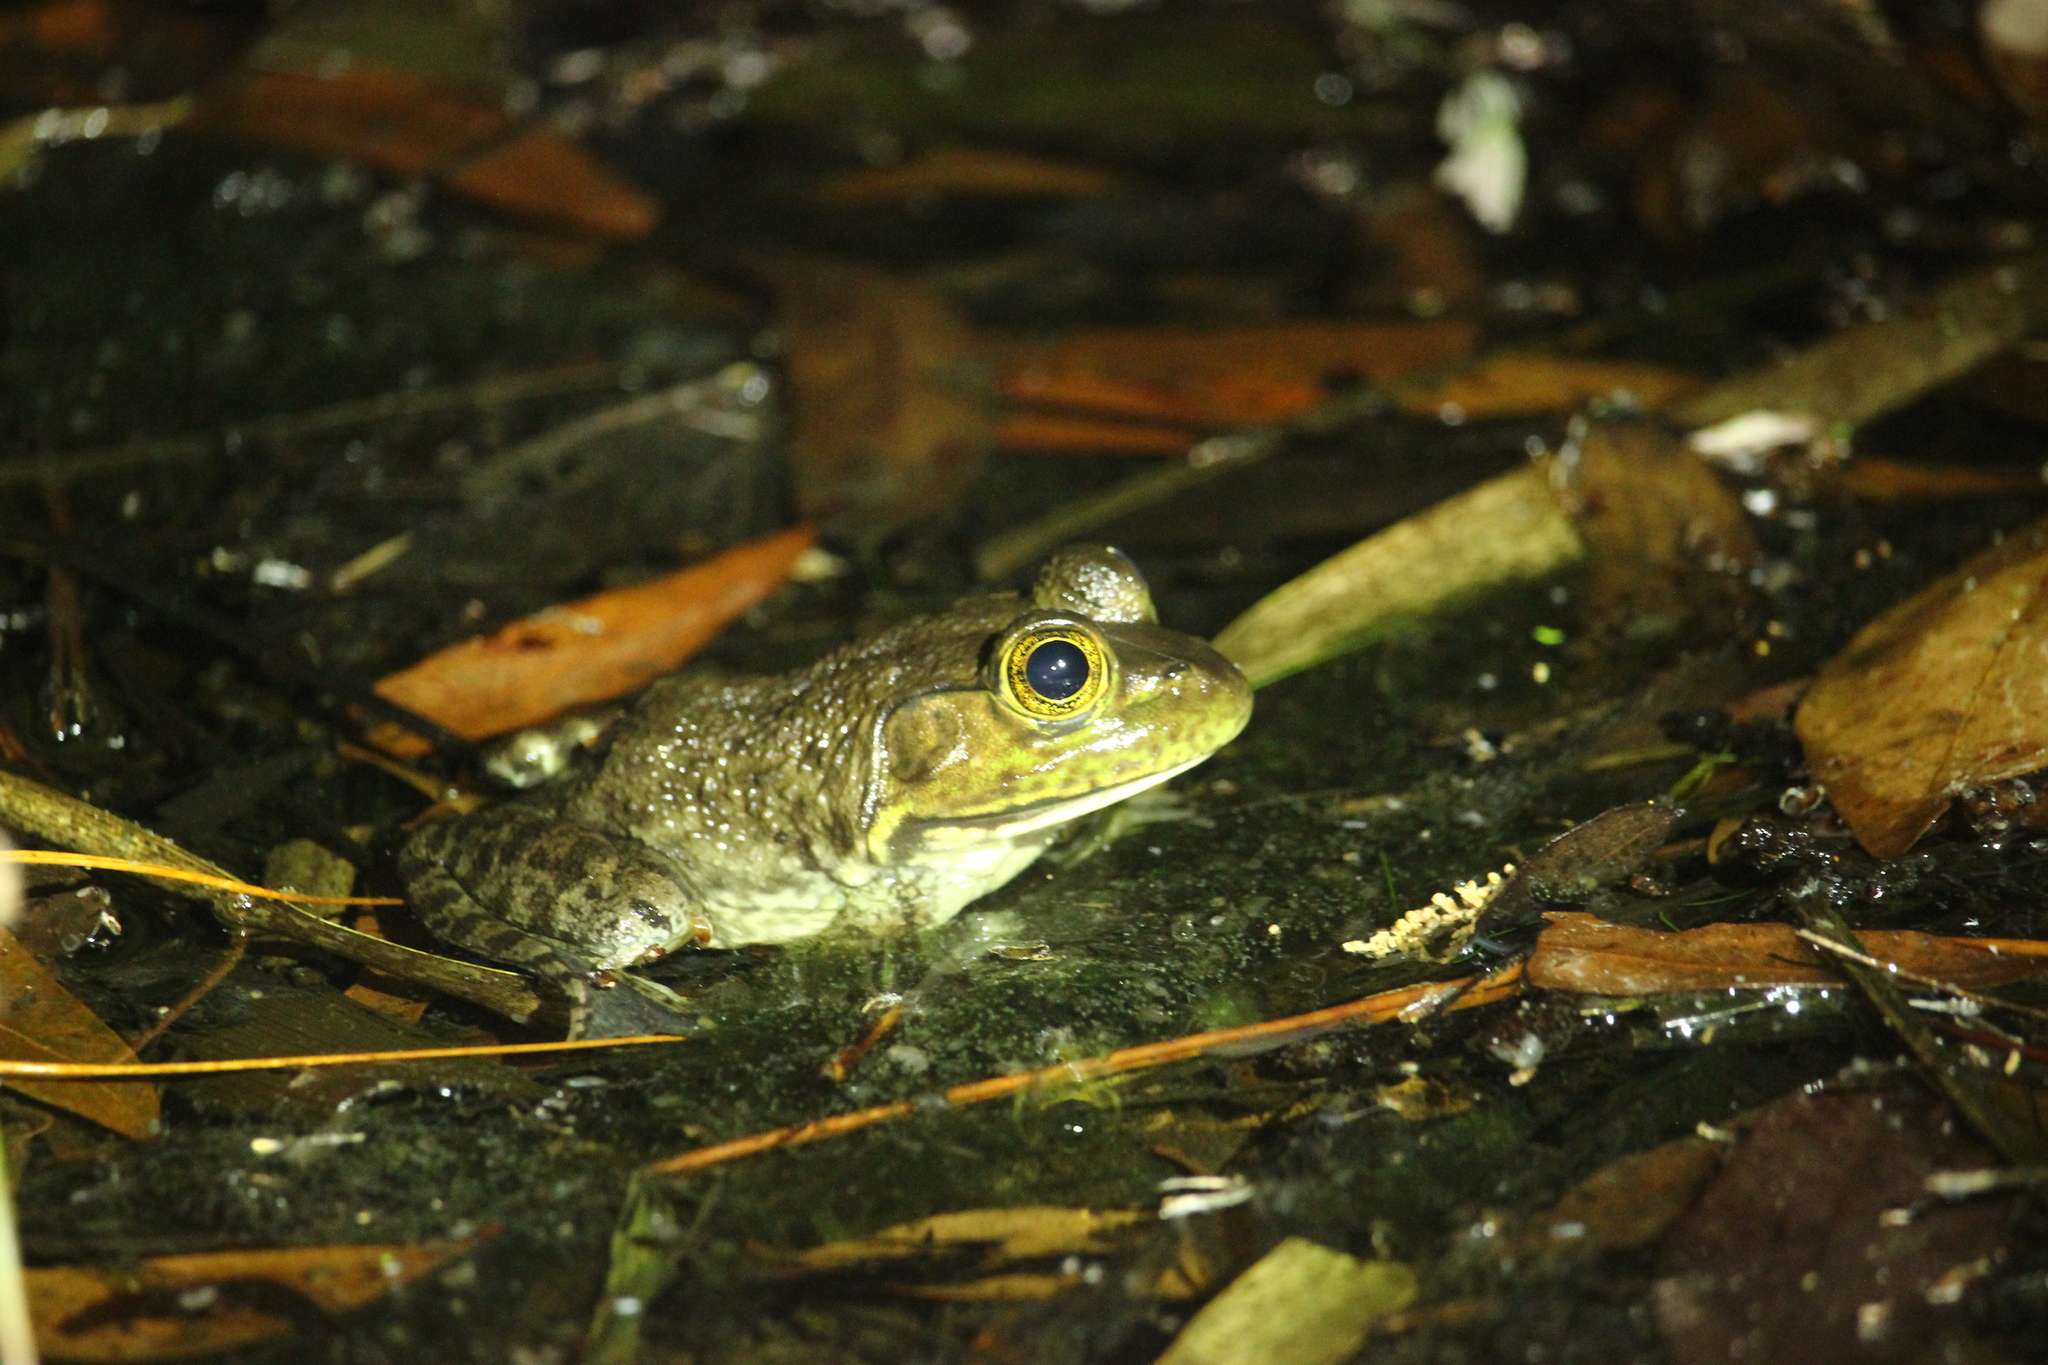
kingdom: Animalia
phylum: Chordata
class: Amphibia
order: Anura
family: Ranidae
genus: Lithobates
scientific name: Lithobates catesbeianus
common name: American bullfrog
